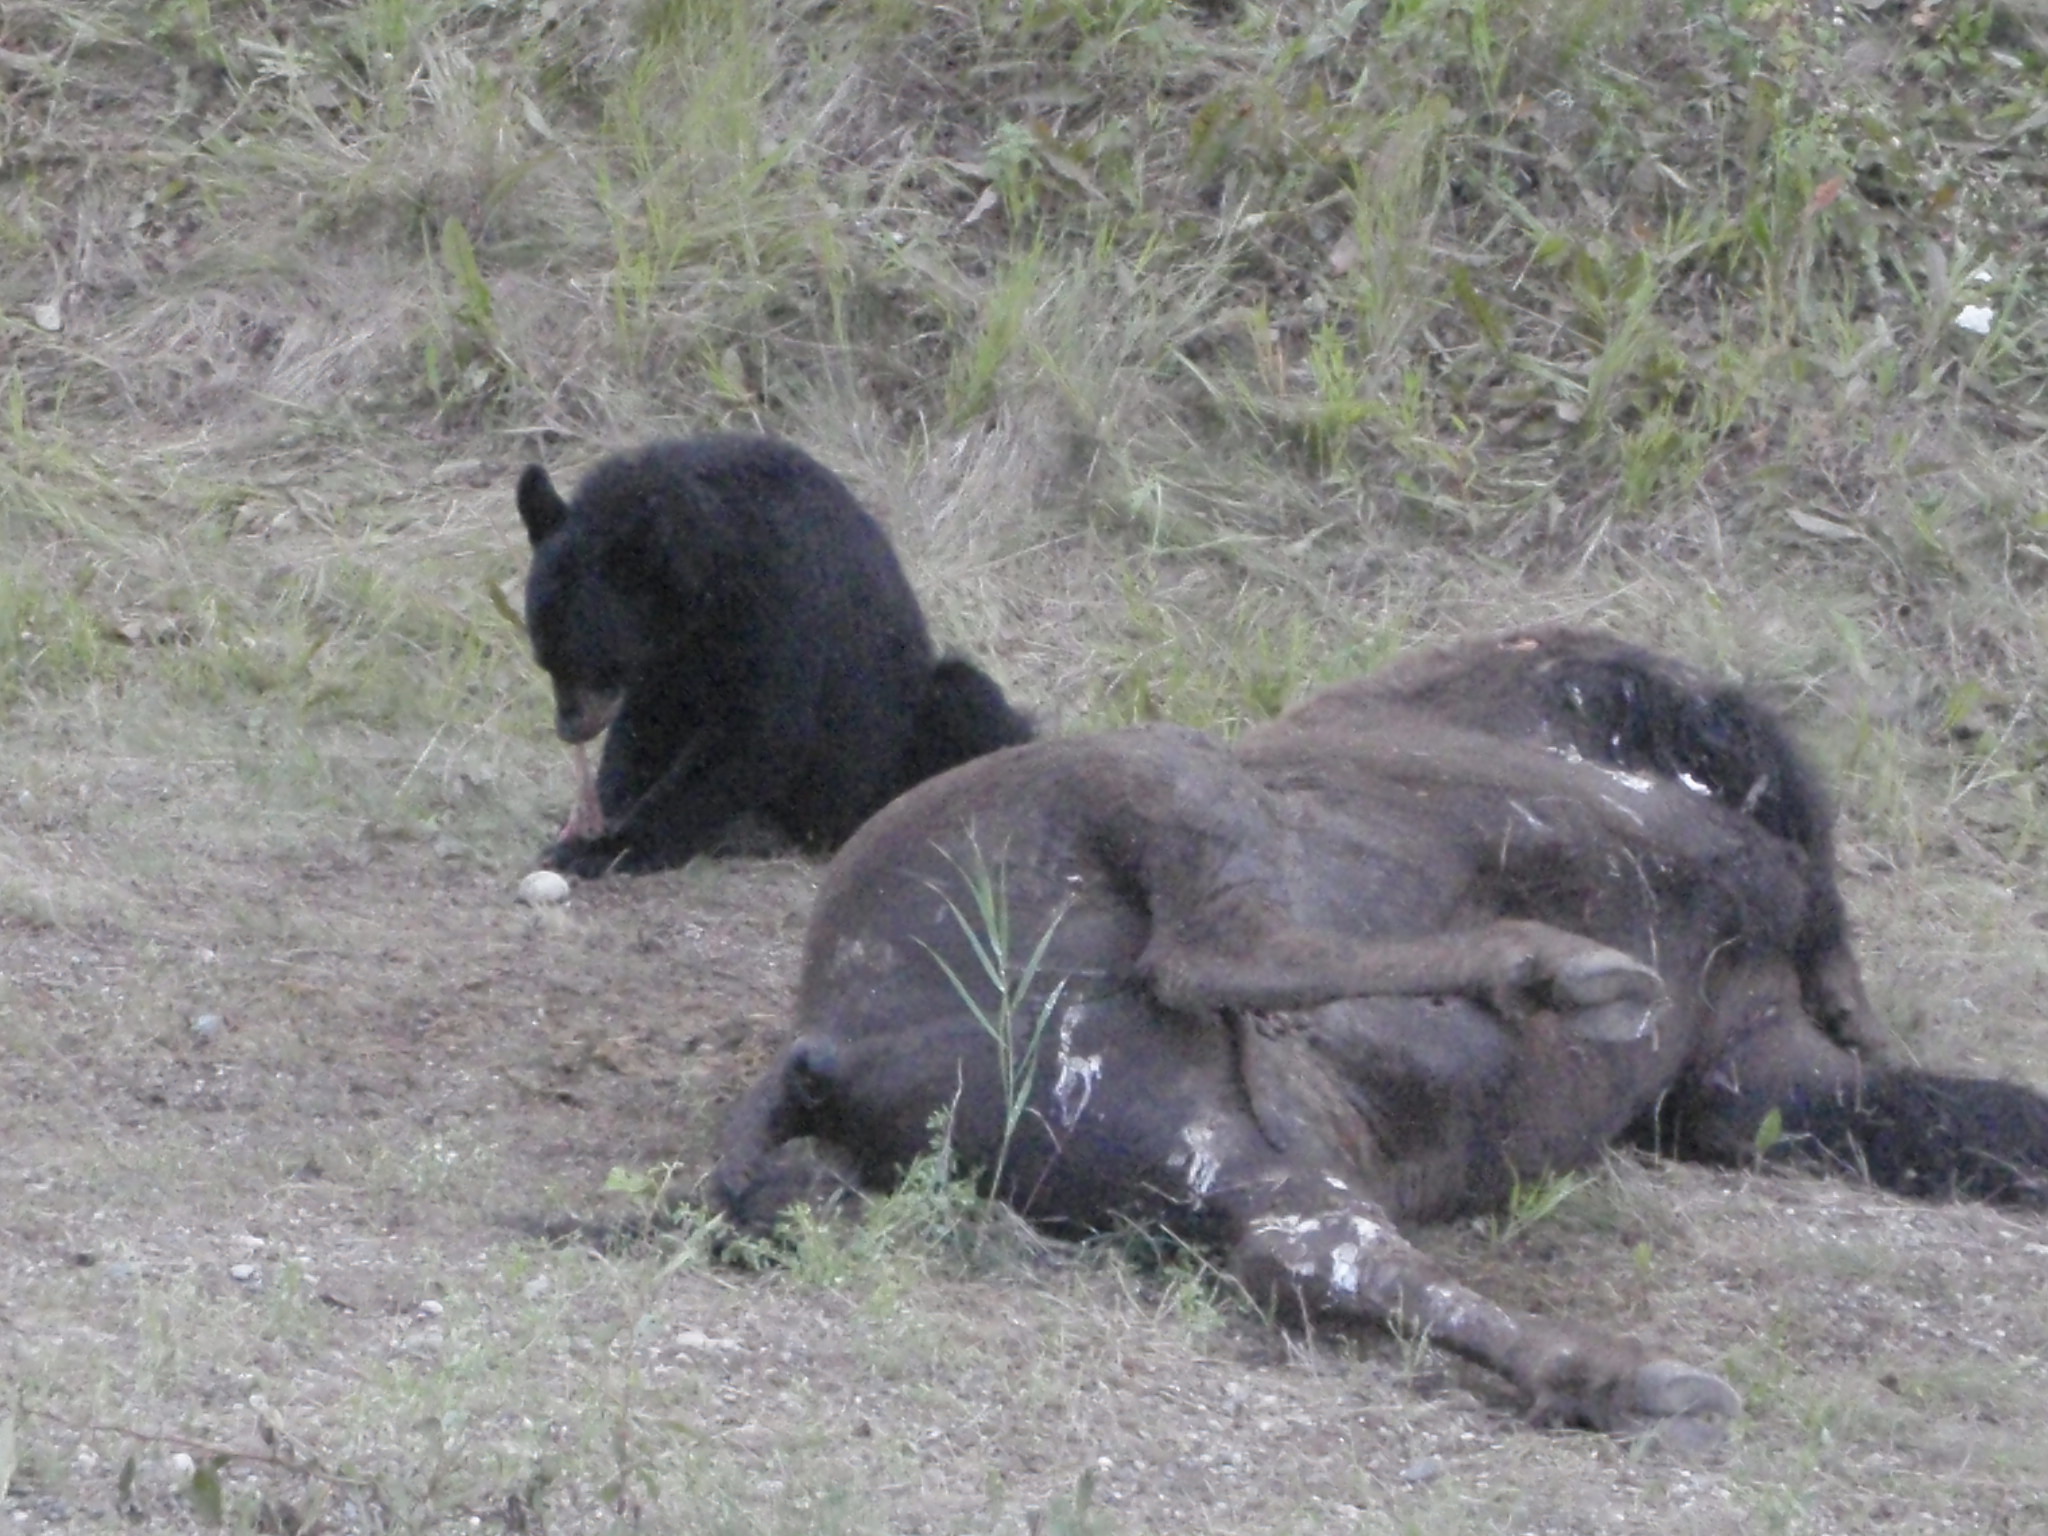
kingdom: Animalia
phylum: Chordata
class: Mammalia
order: Carnivora
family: Ursidae
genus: Ursus
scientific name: Ursus americanus
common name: American black bear
